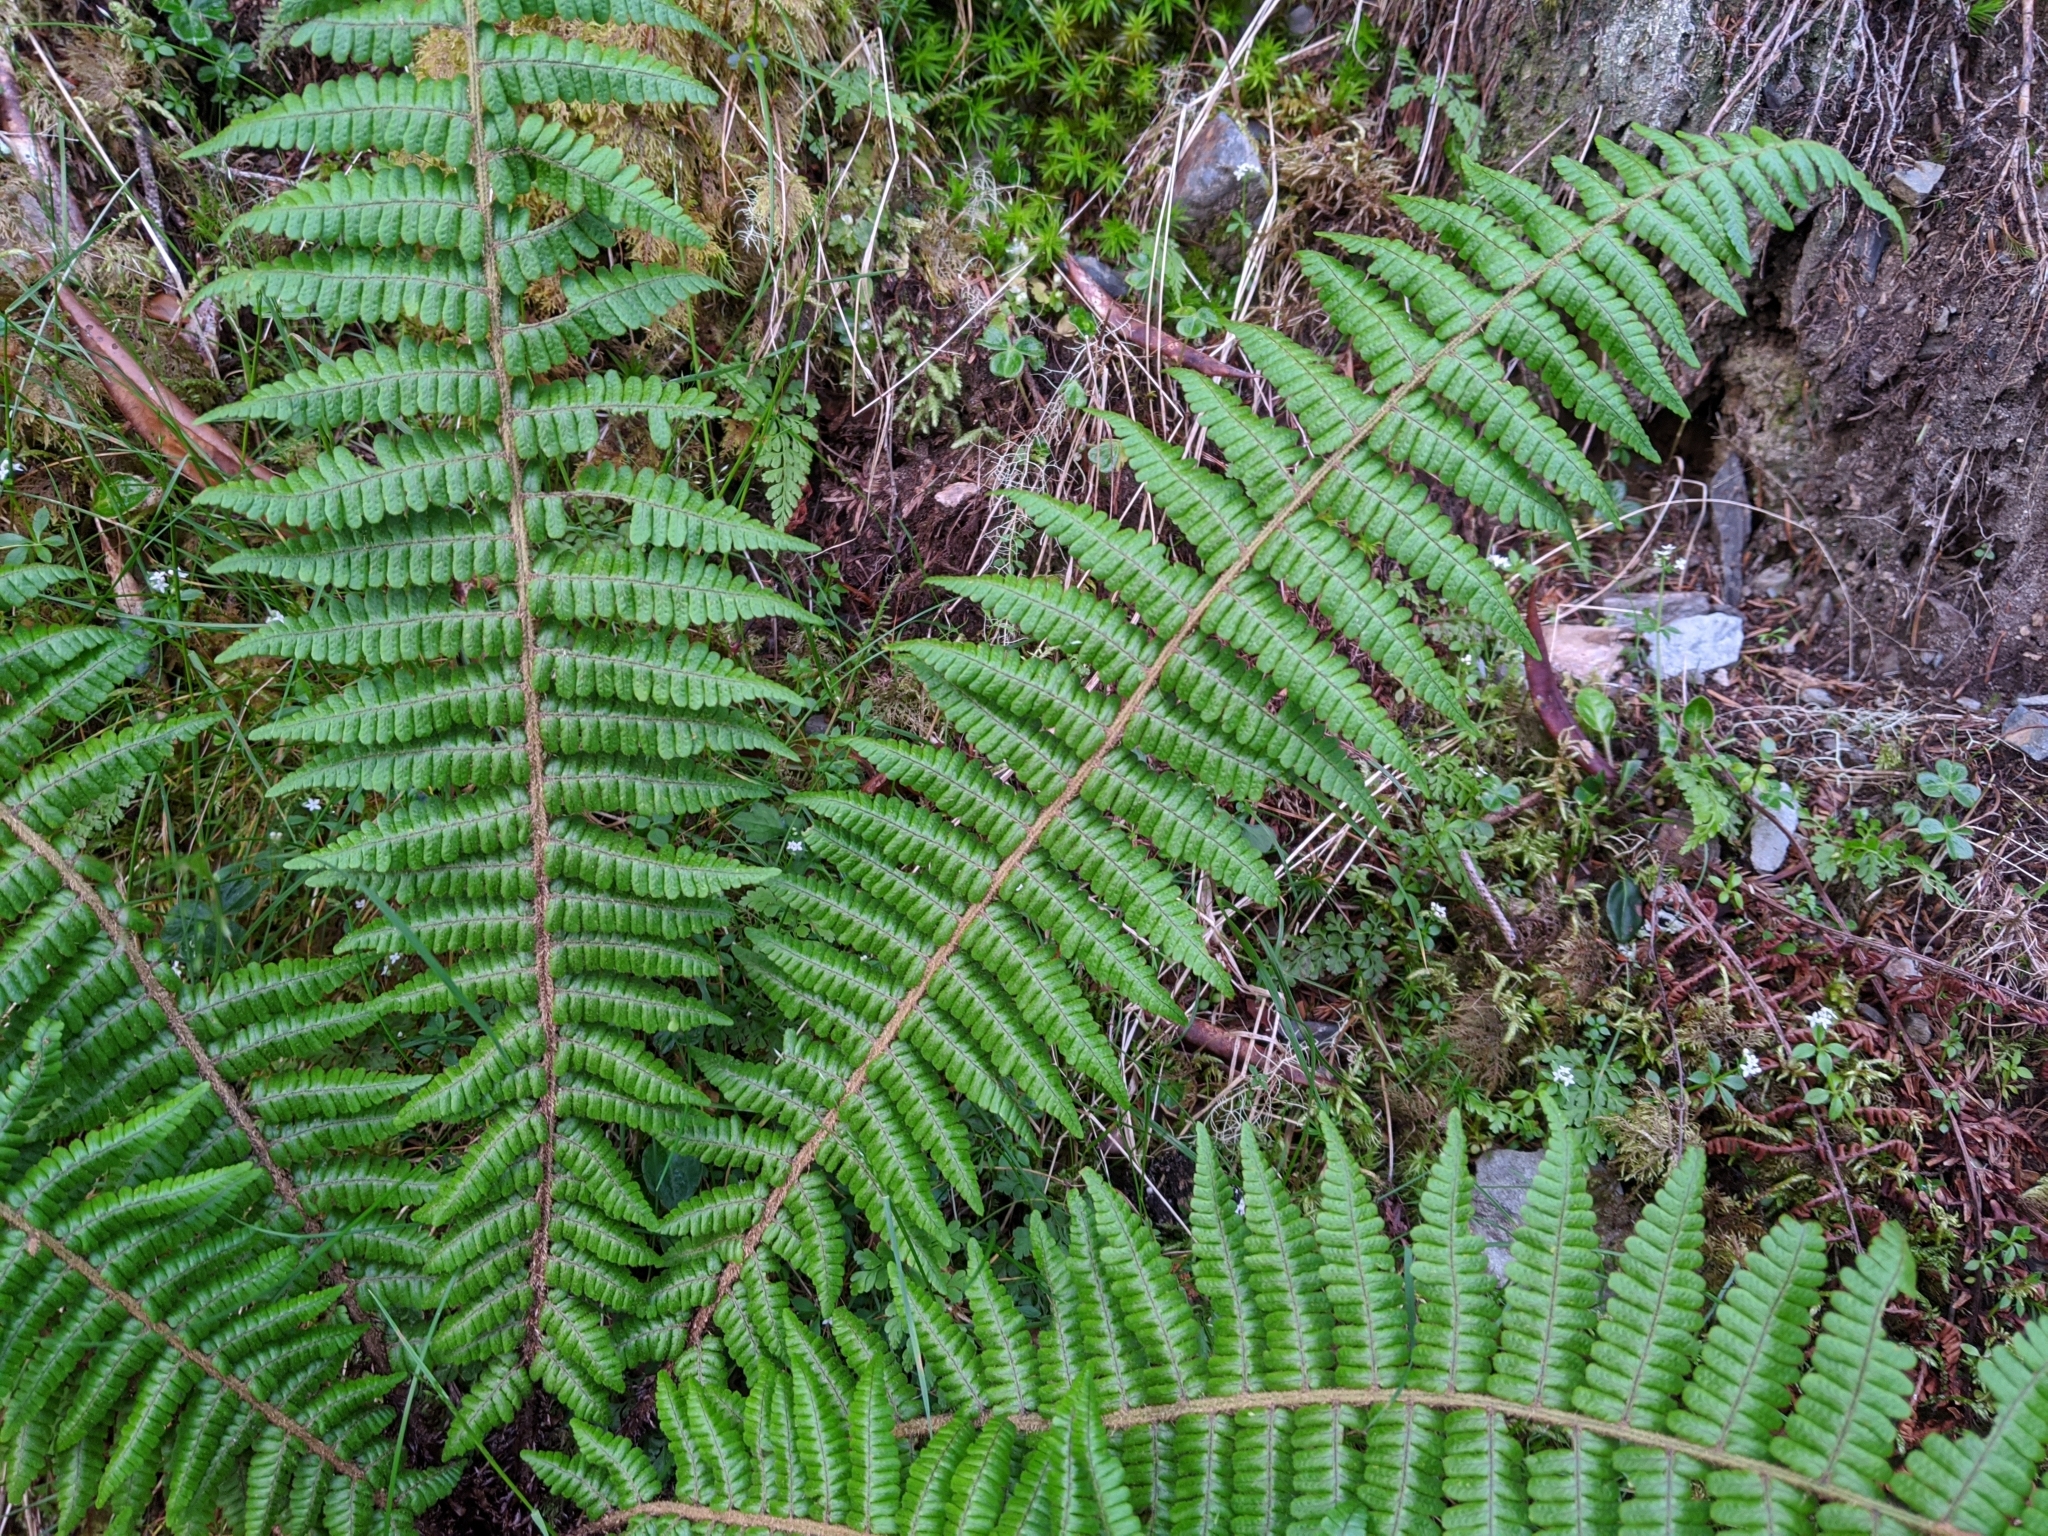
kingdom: Plantae
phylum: Tracheophyta
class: Polypodiopsida
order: Polypodiales
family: Dryopteridaceae
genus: Dryopteris
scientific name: Dryopteris zayuensis
